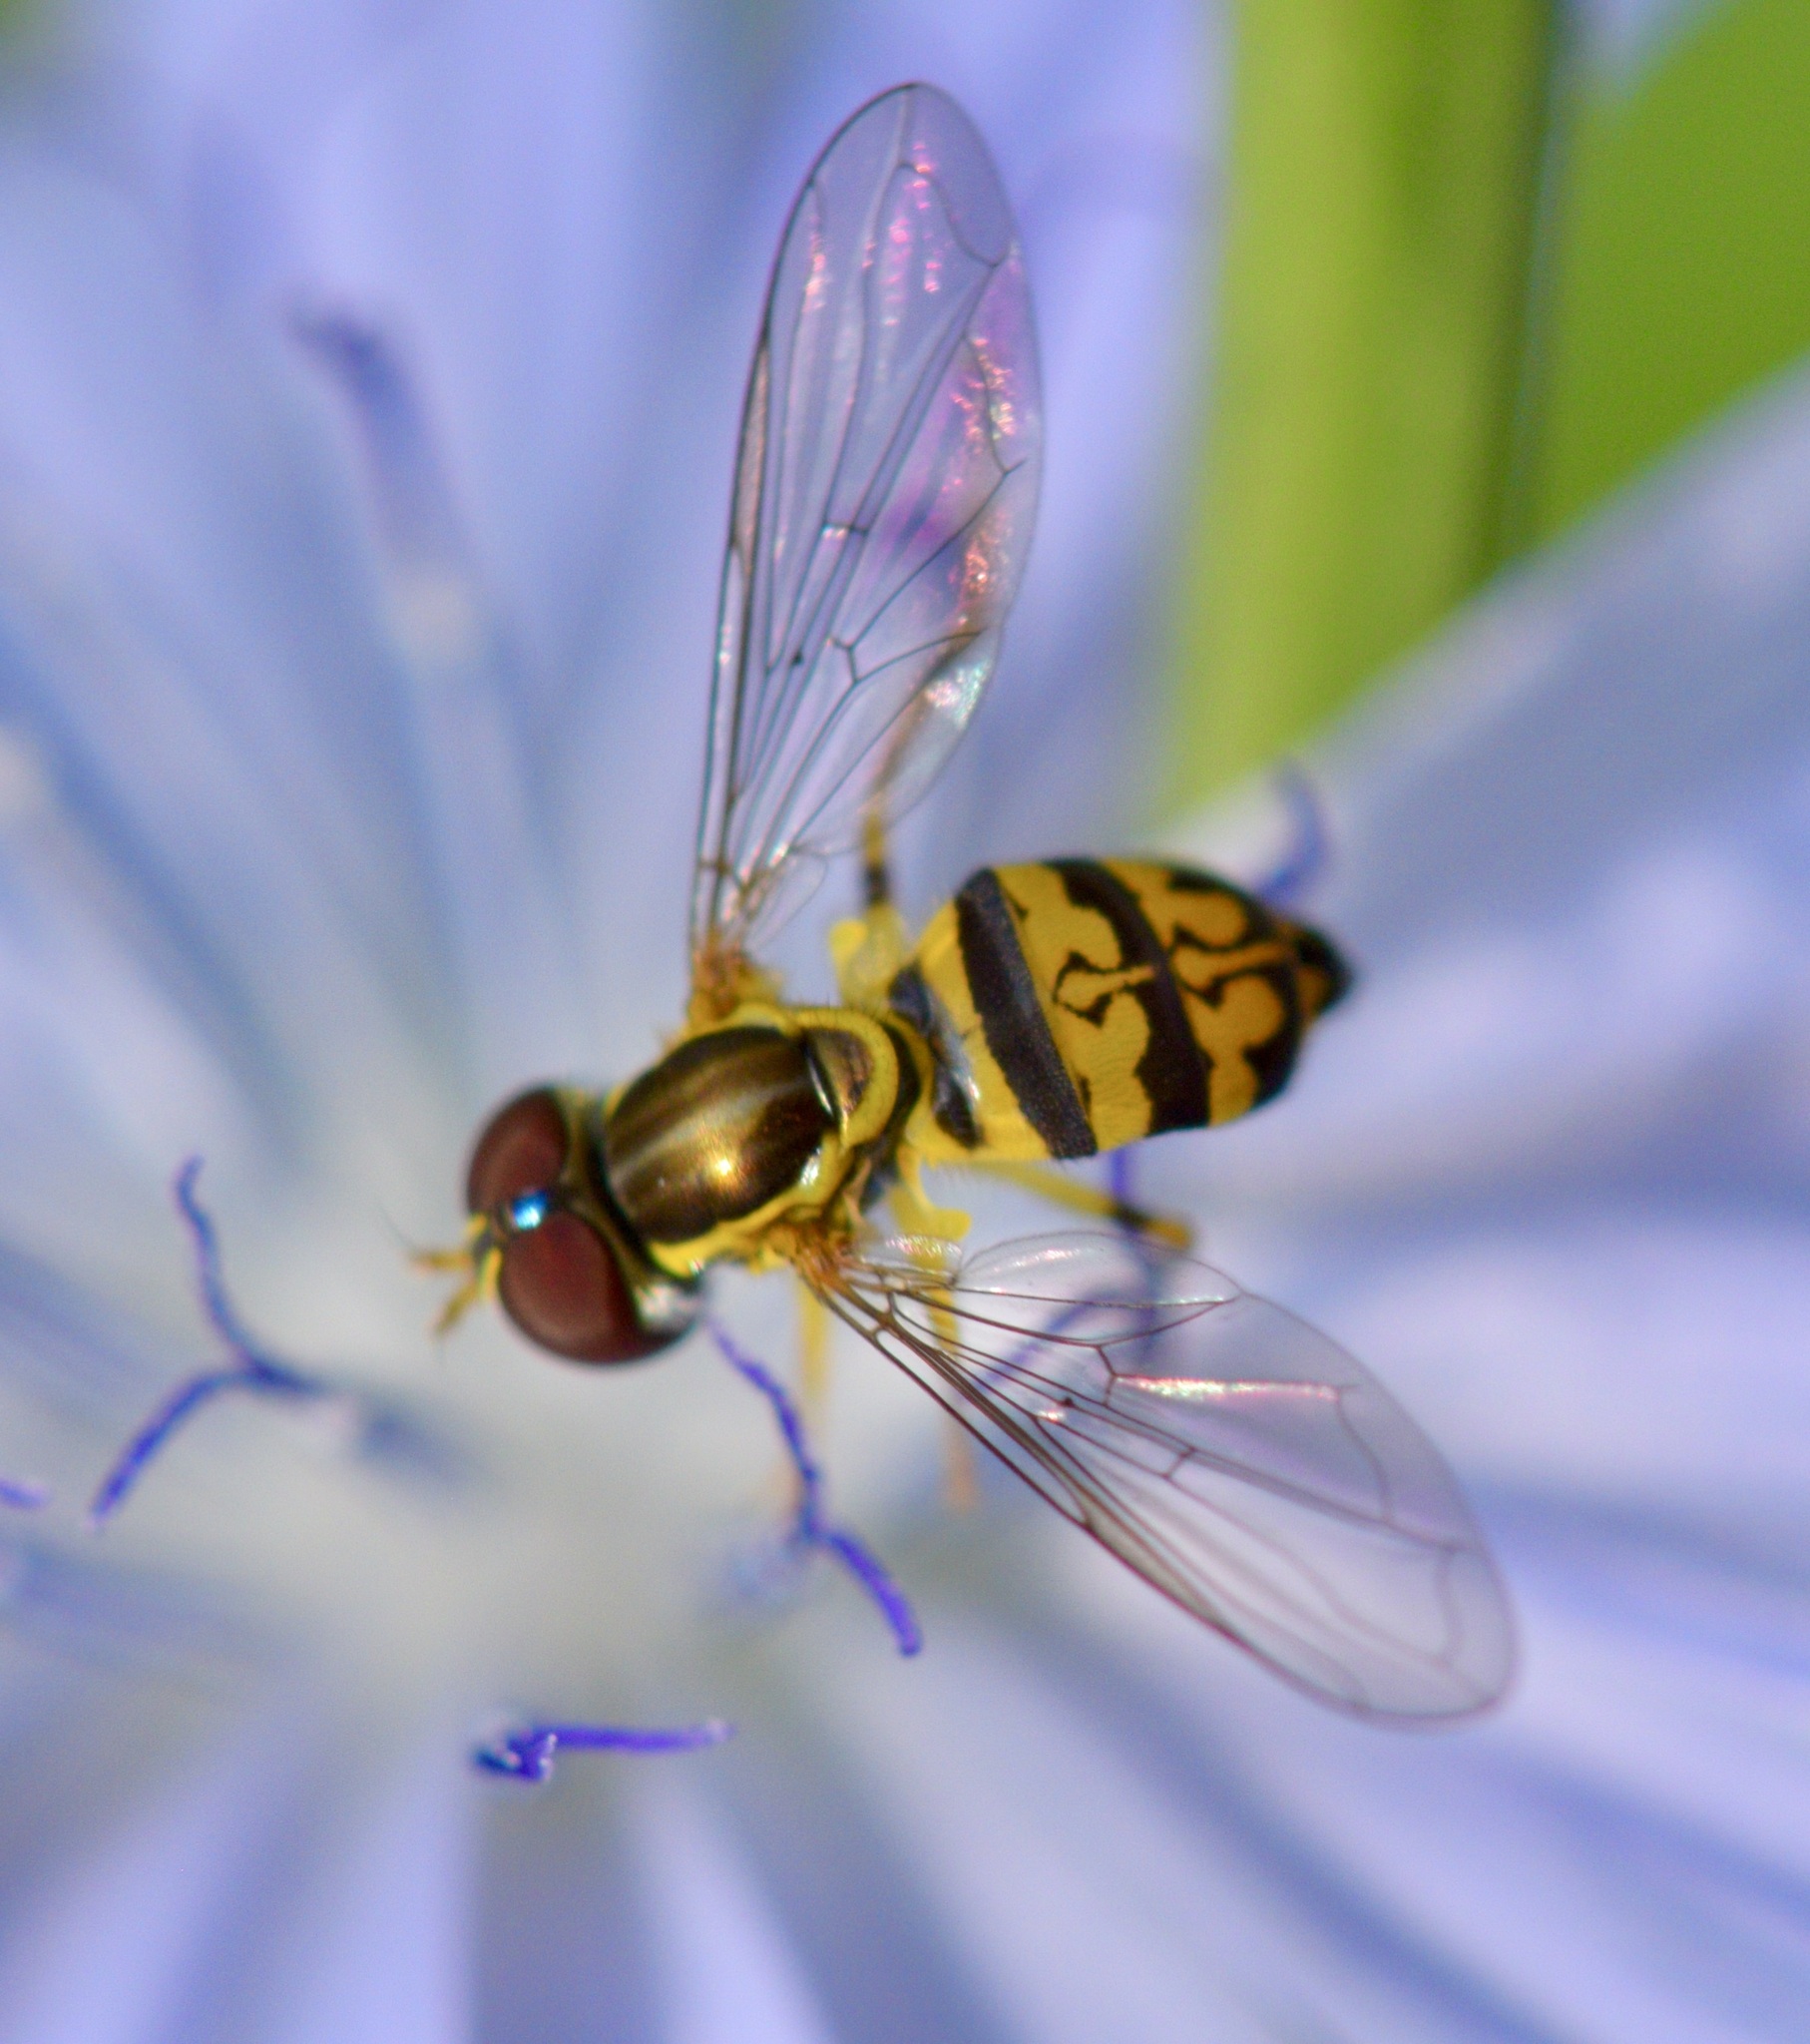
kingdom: Animalia
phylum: Arthropoda
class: Insecta
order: Diptera
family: Syrphidae
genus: Toxomerus
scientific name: Toxomerus geminatus
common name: Eastern calligrapher
